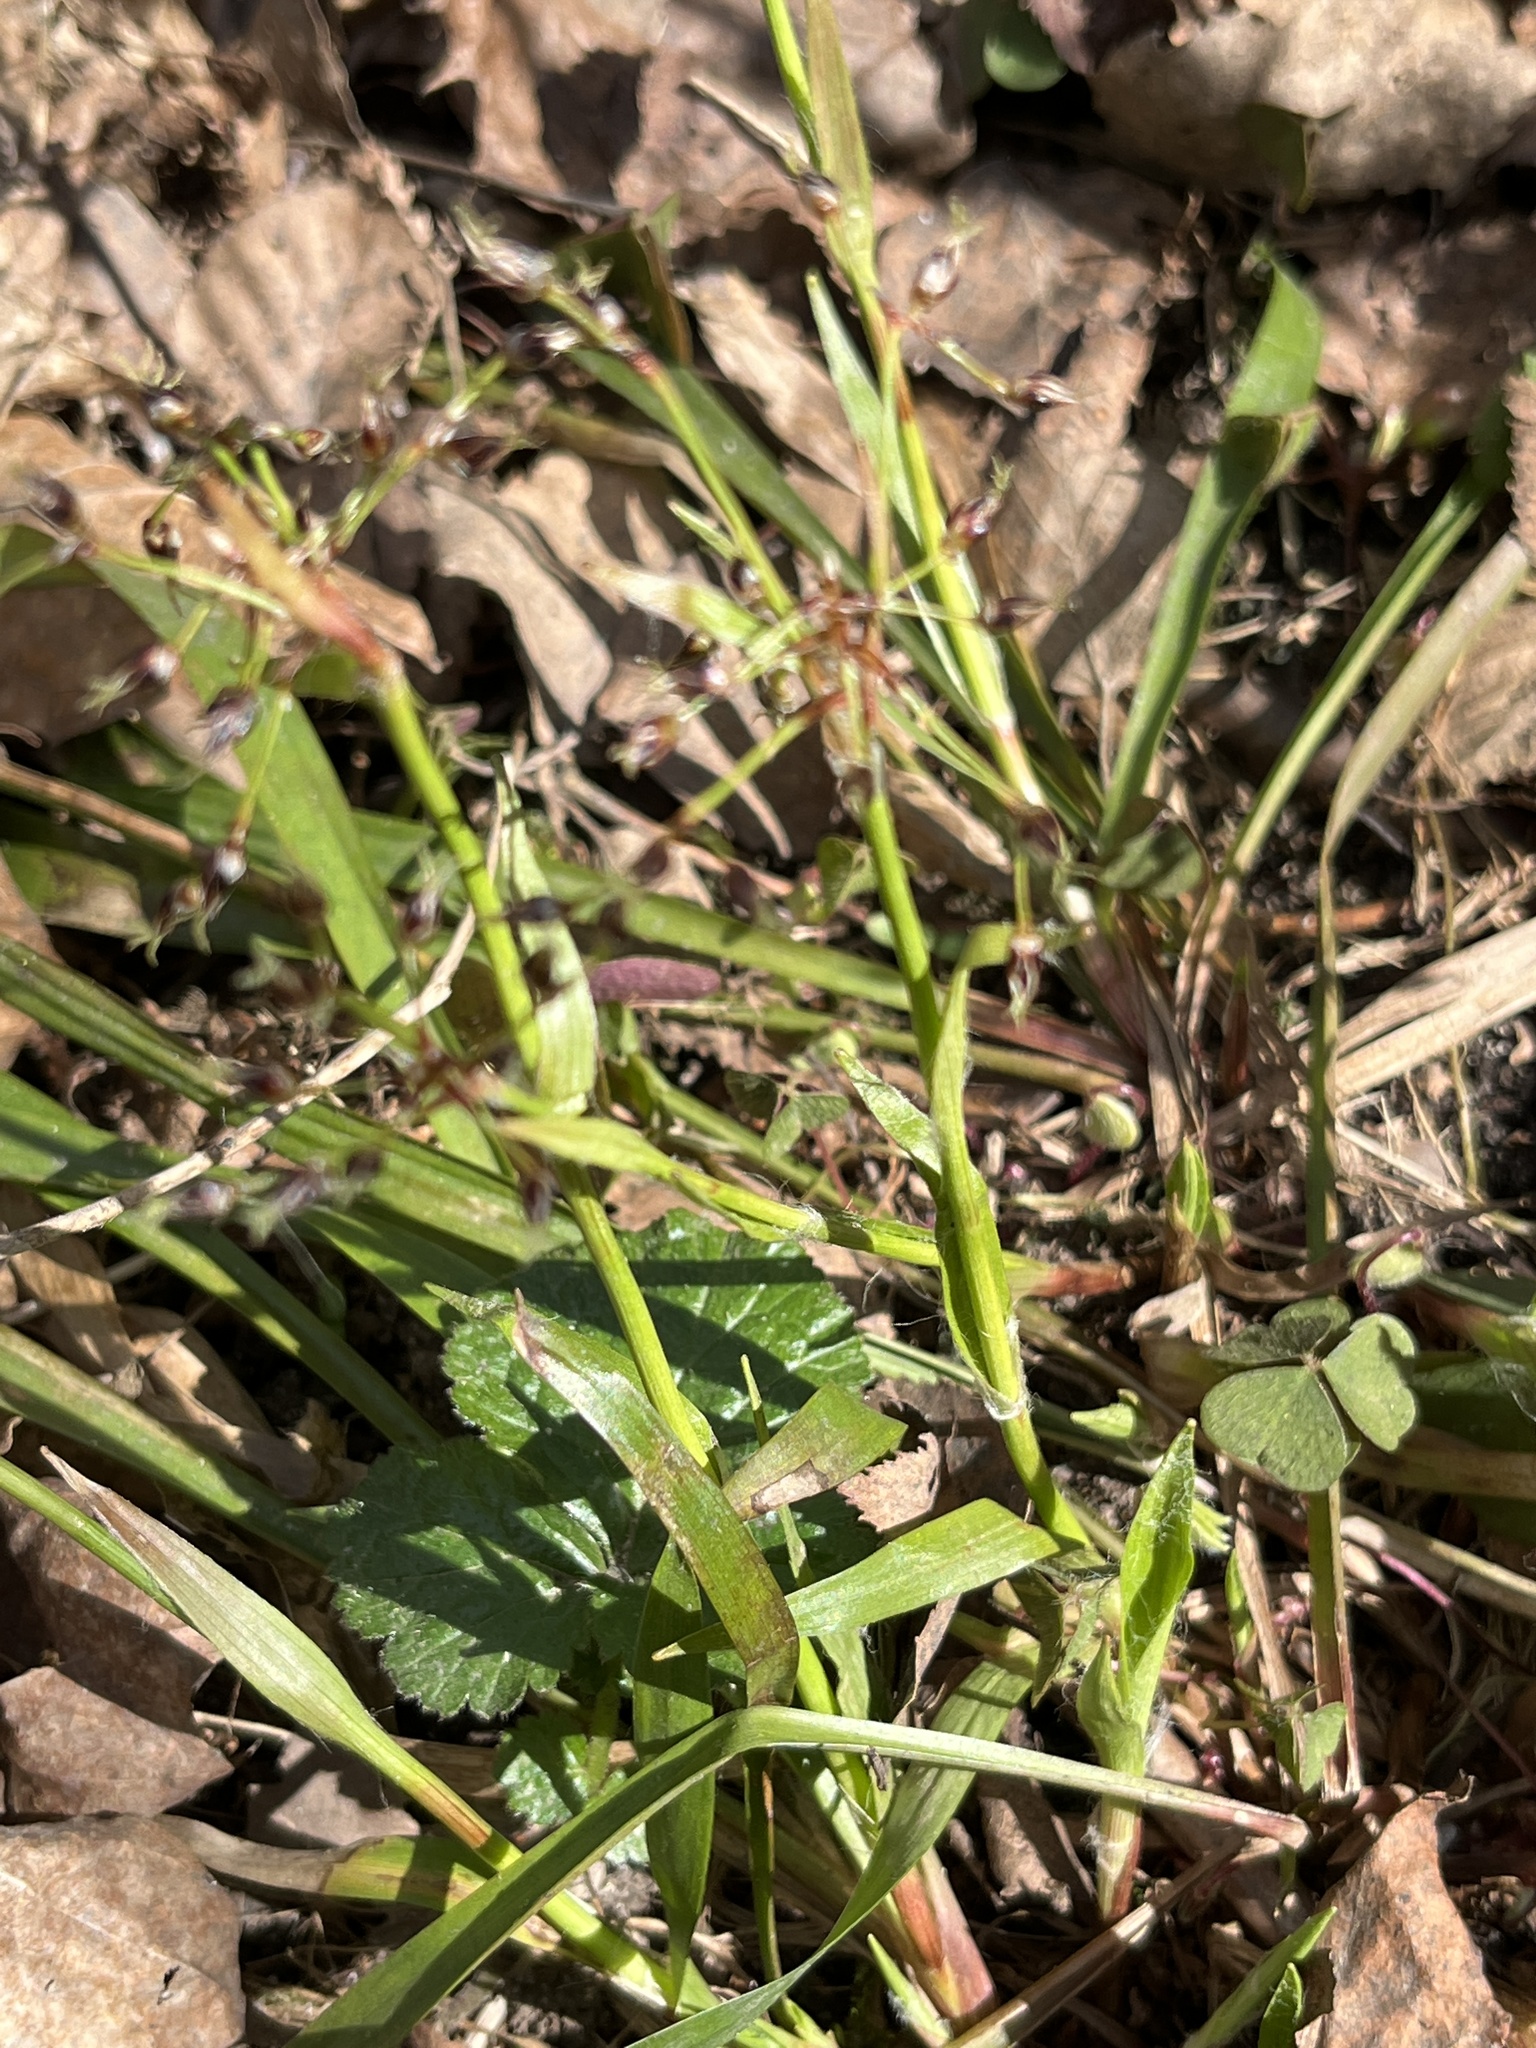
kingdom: Plantae
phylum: Tracheophyta
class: Liliopsida
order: Poales
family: Juncaceae
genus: Luzula
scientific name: Luzula pilosa
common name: Hairy wood-rush
